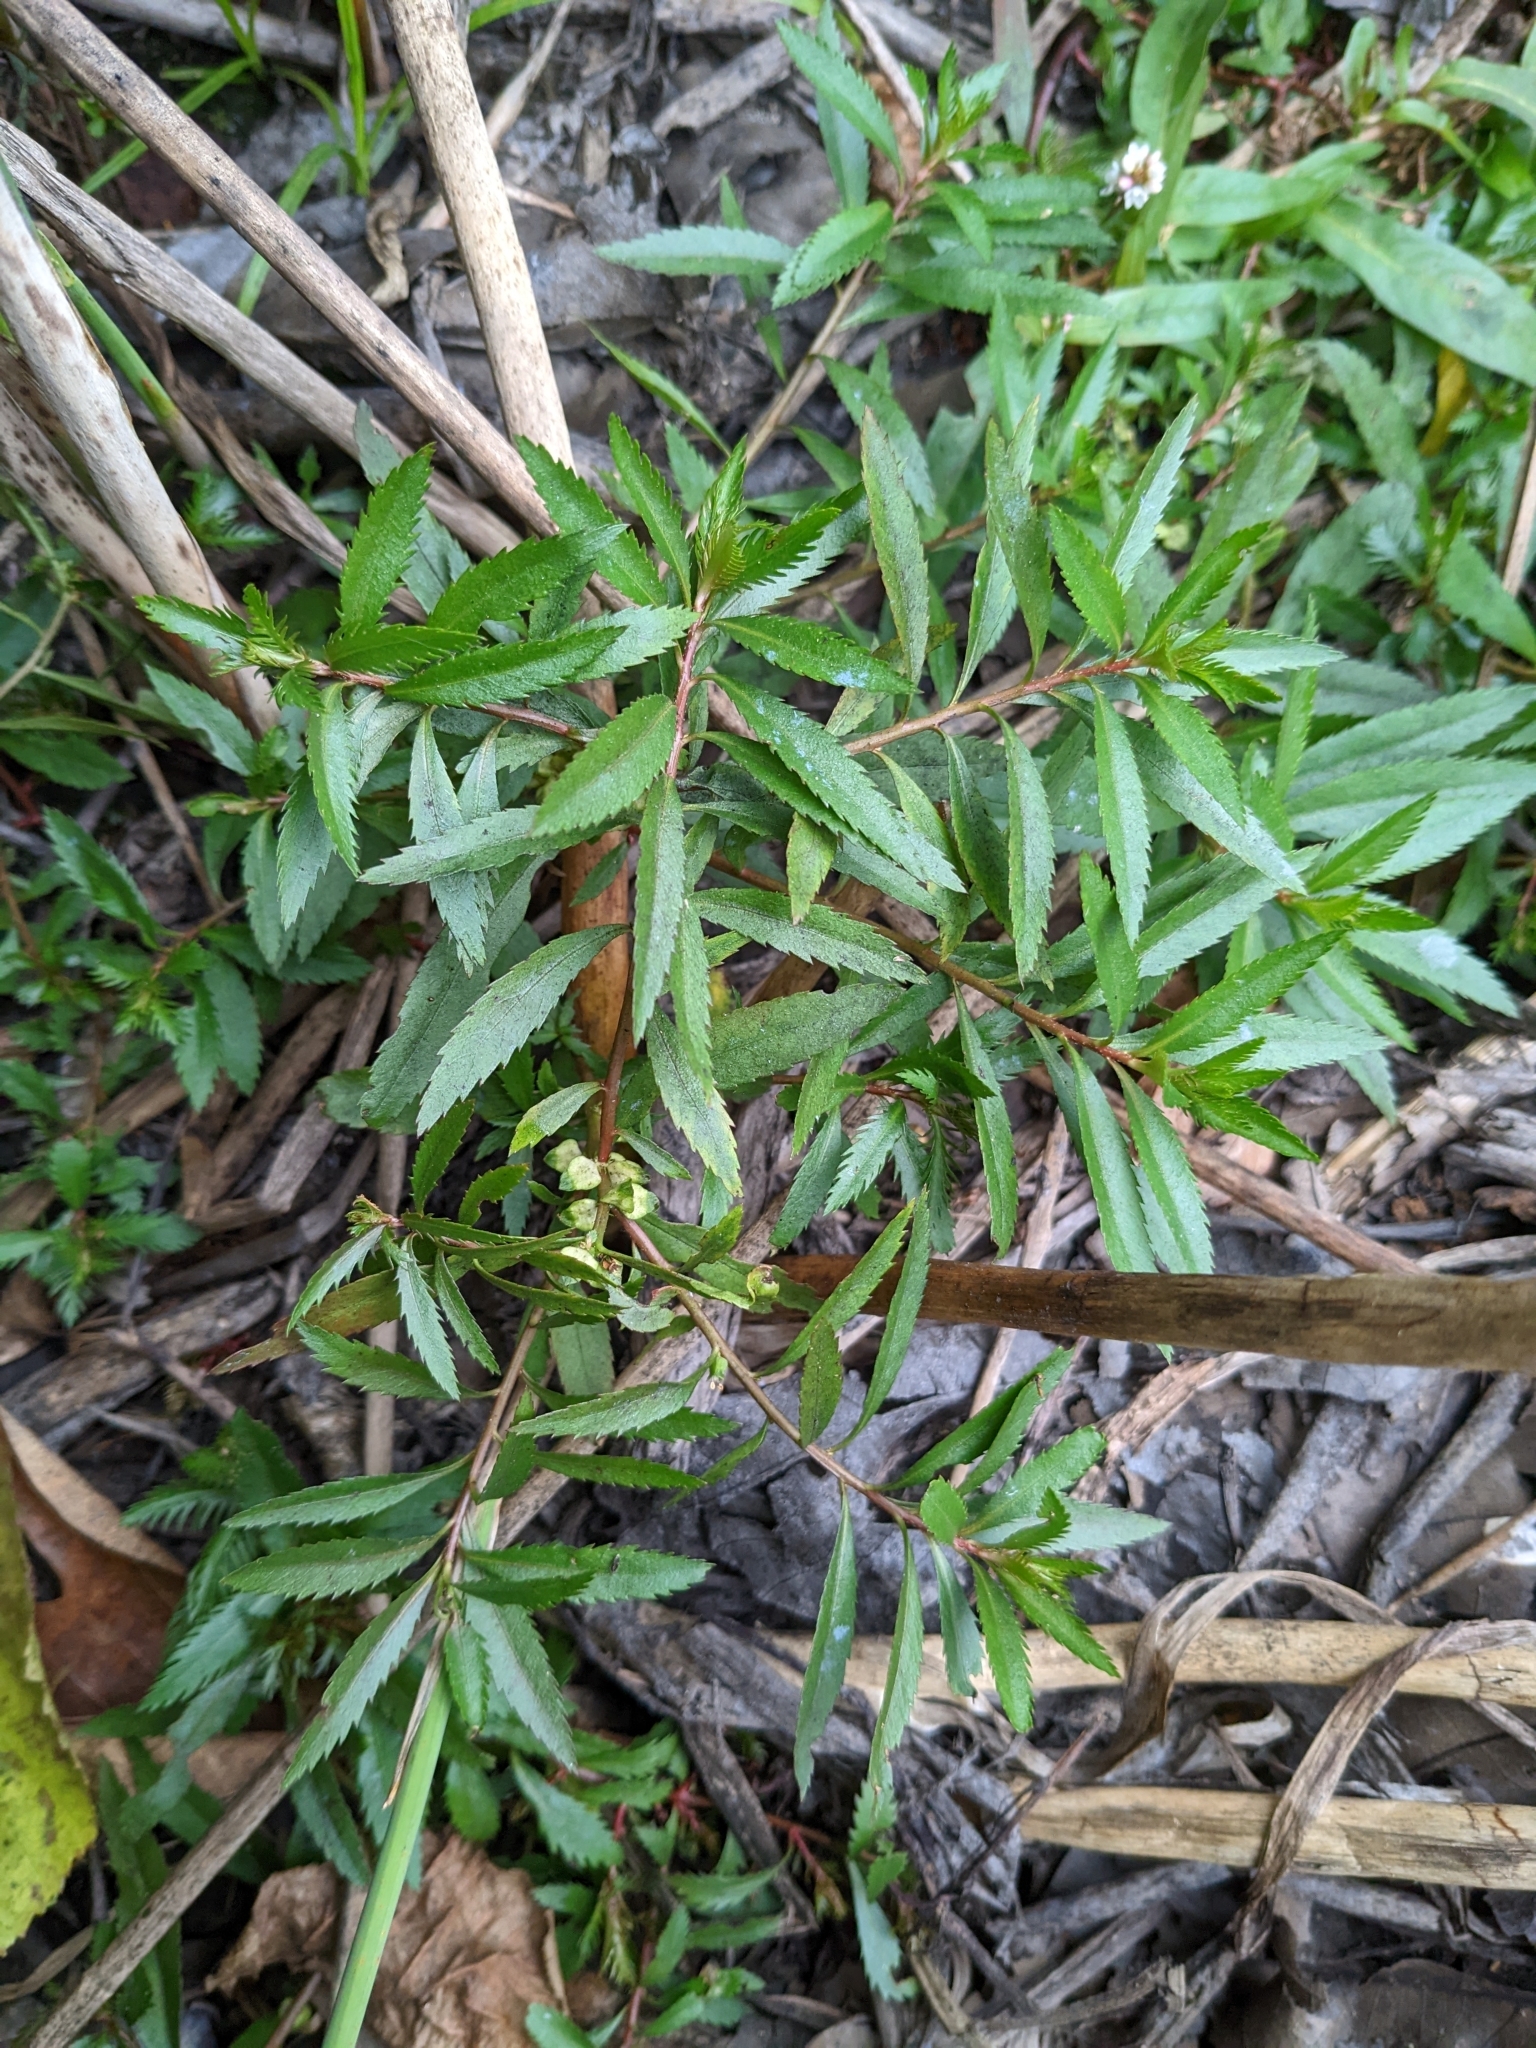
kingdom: Plantae
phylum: Tracheophyta
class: Magnoliopsida
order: Saxifragales
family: Haloragaceae
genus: Proserpinaca
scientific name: Proserpinaca palustris
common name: Marsh mermaidweed
